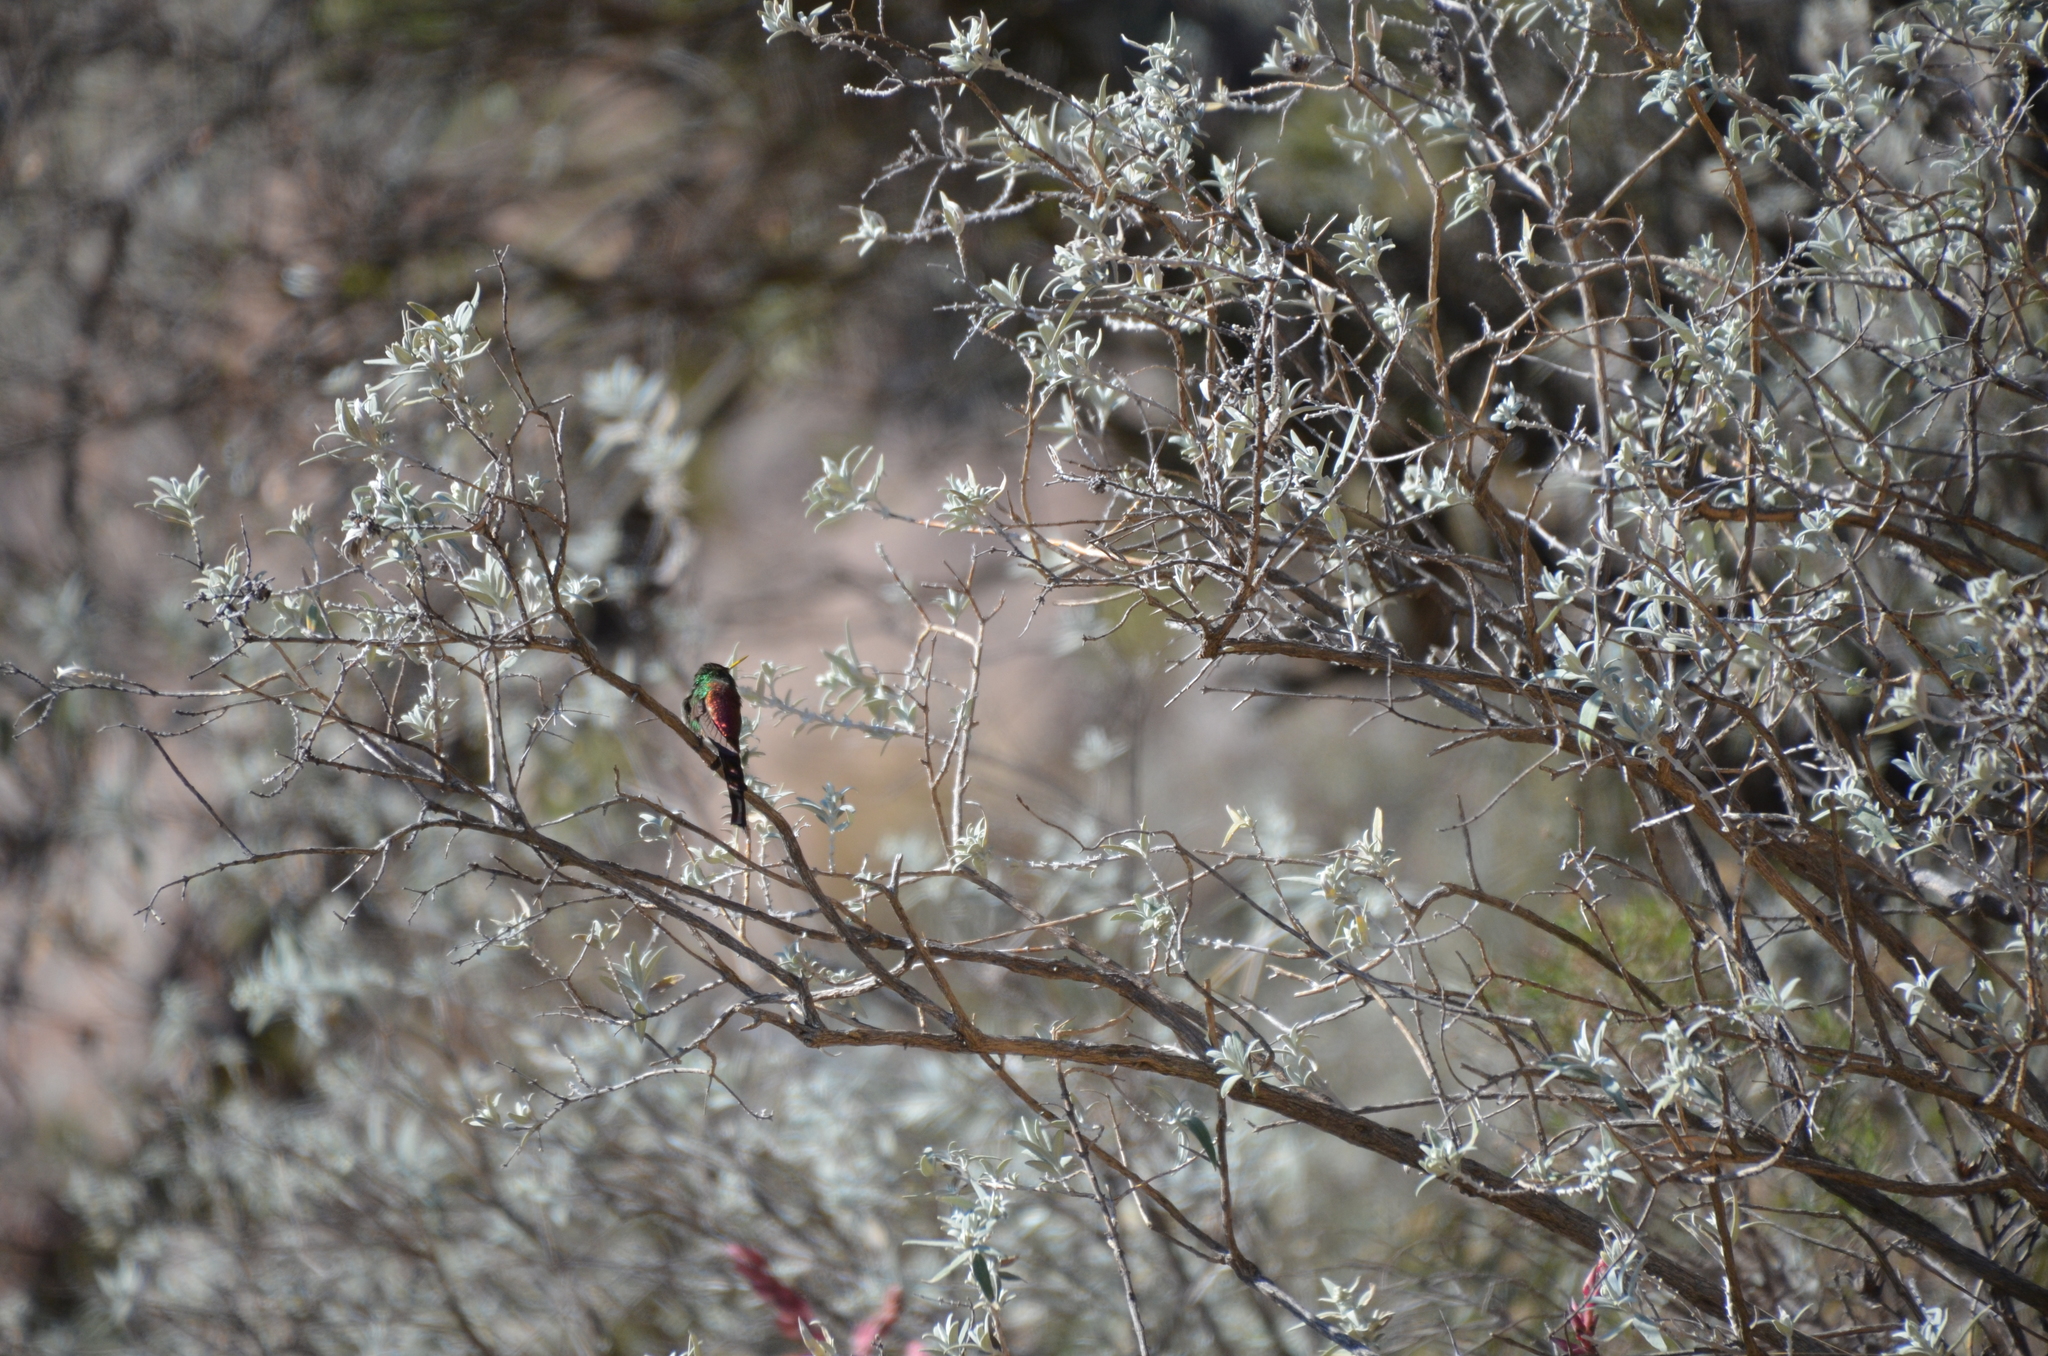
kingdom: Animalia
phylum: Chordata
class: Aves
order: Apodiformes
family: Trochilidae
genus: Sappho
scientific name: Sappho sparganurus
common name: Red-tailed comet
